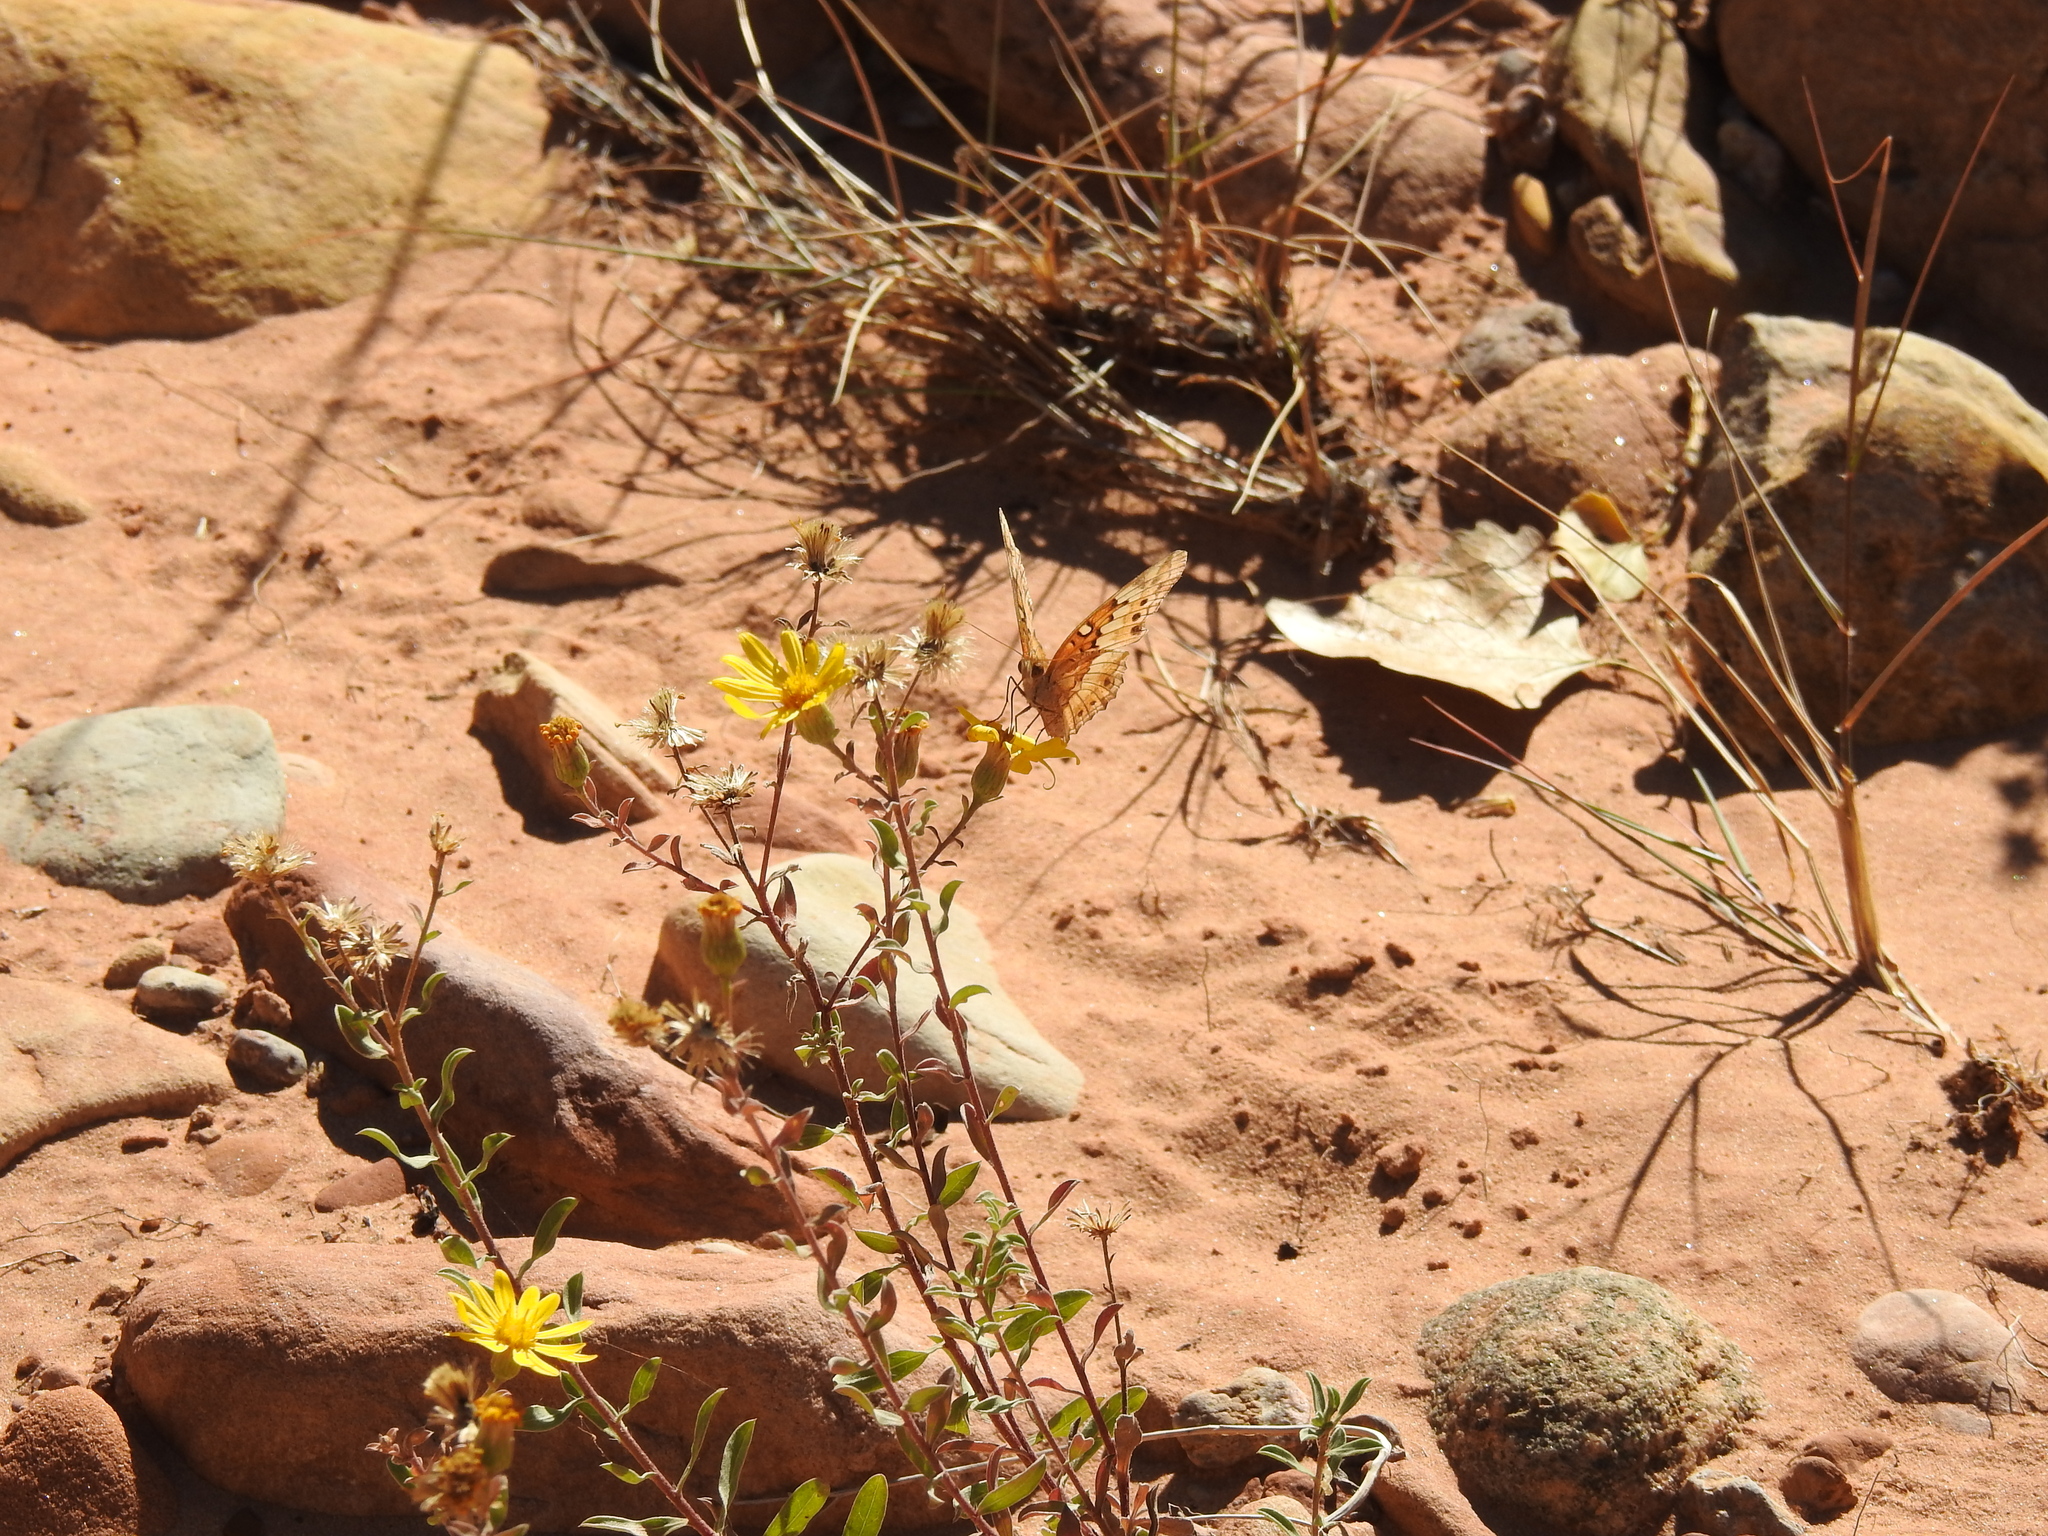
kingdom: Animalia
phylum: Arthropoda
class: Insecta
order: Lepidoptera
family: Nymphalidae
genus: Euptoieta
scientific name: Euptoieta claudia
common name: Variegated fritillary
